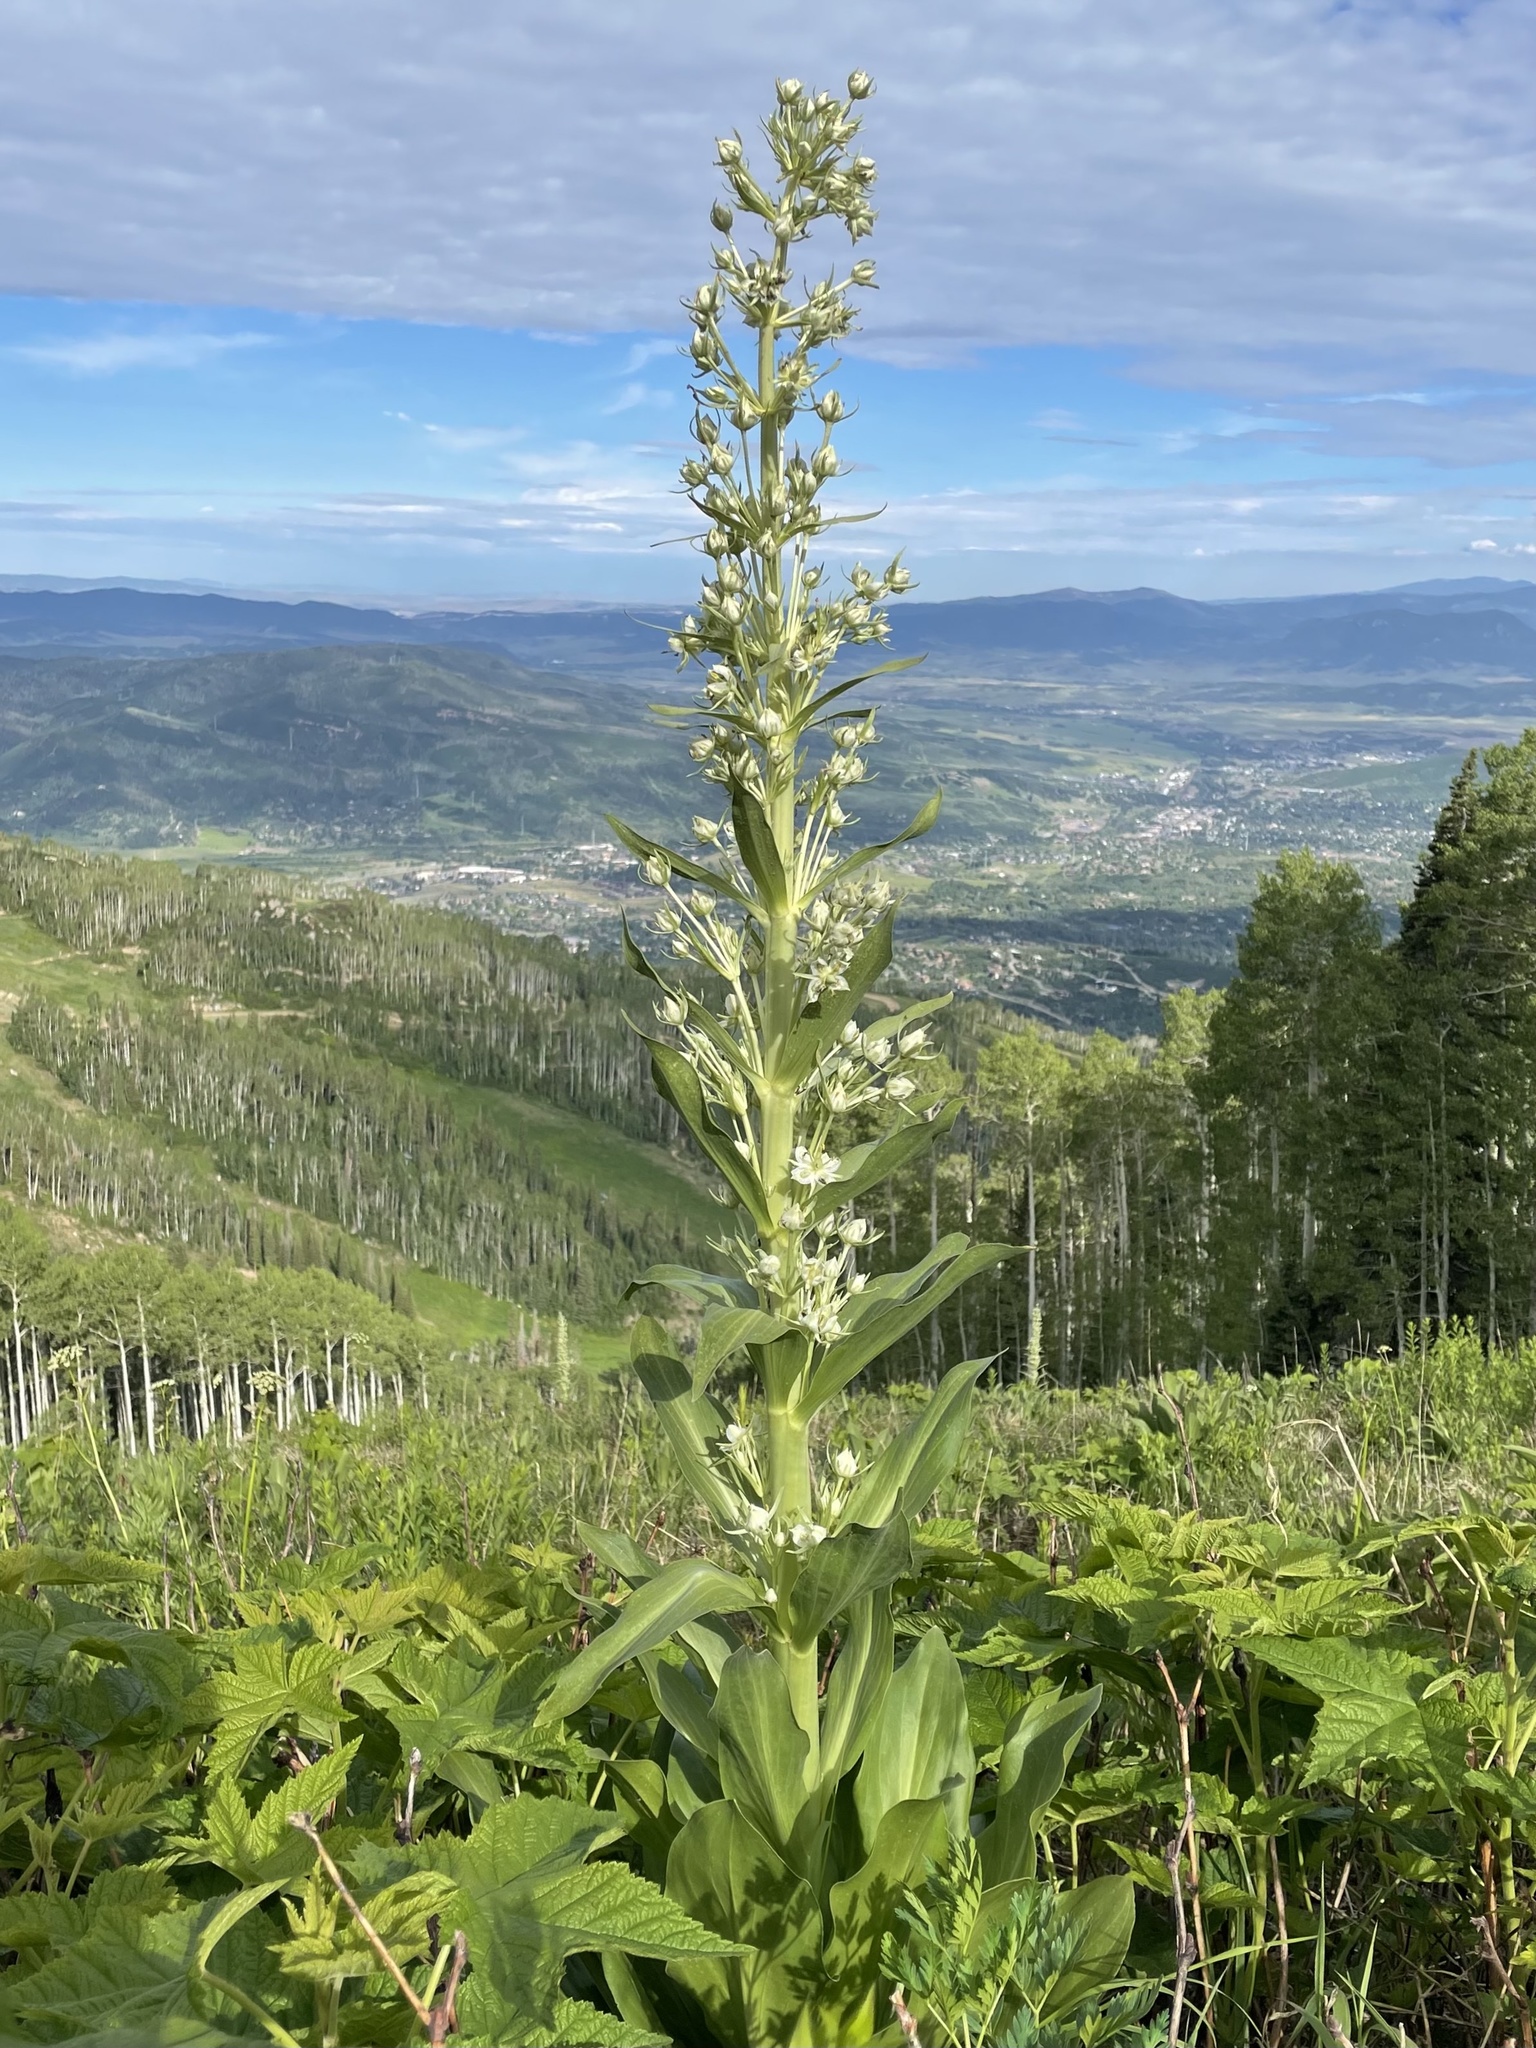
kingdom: Plantae
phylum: Tracheophyta
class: Magnoliopsida
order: Gentianales
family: Gentianaceae
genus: Frasera
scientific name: Frasera speciosa
